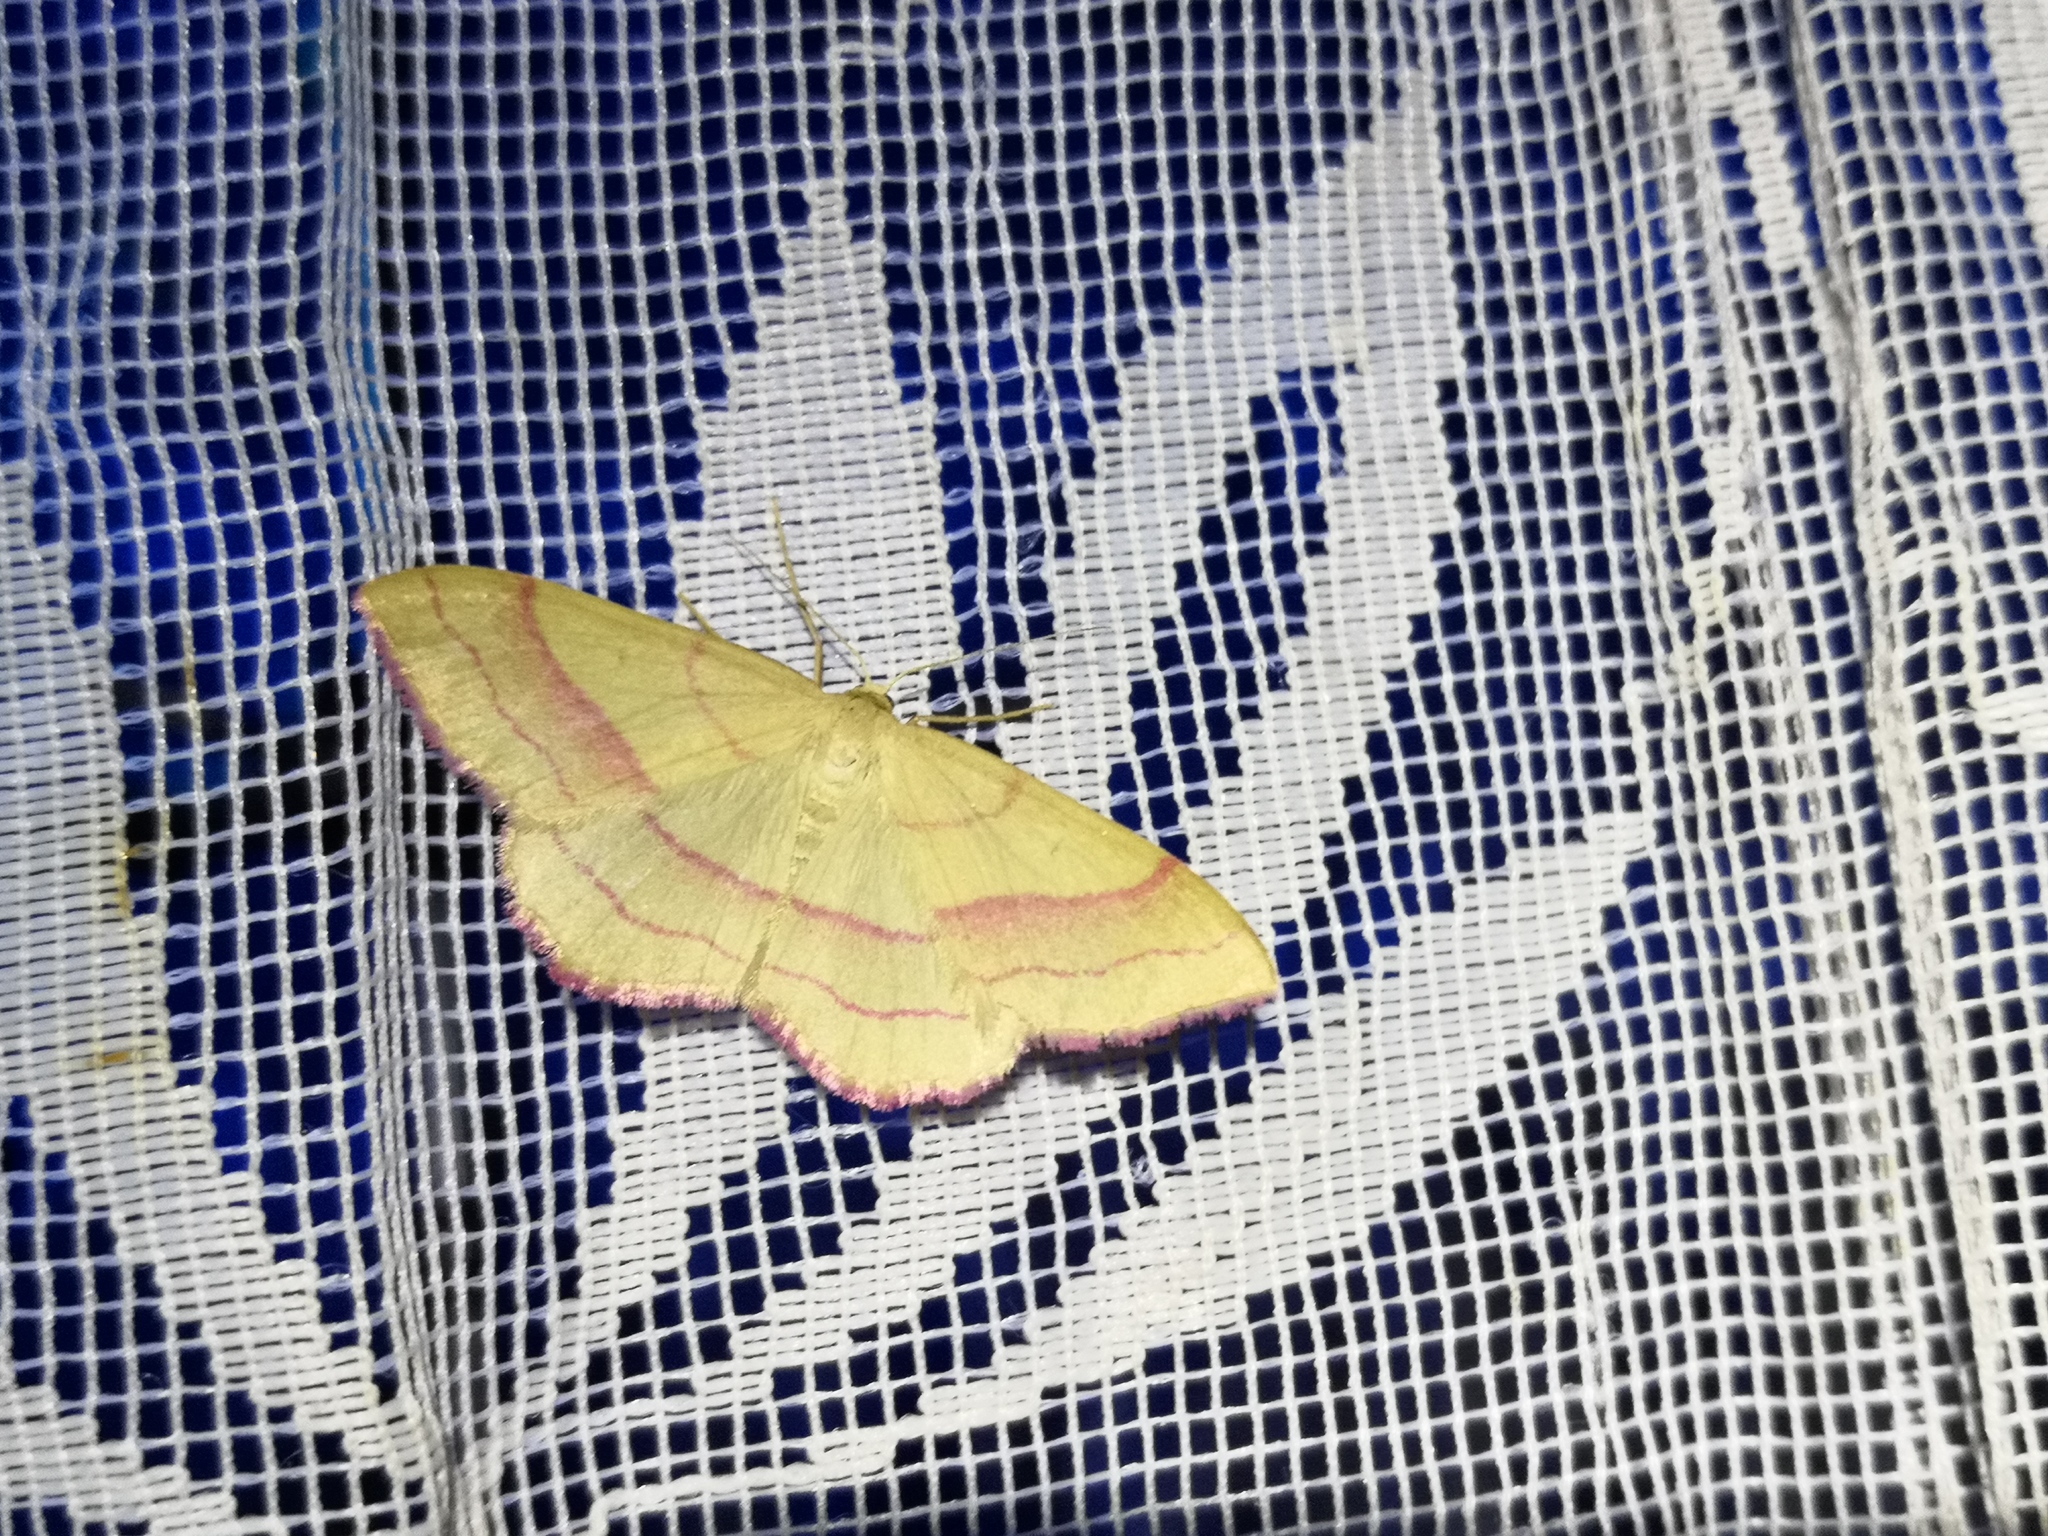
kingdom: Animalia
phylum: Arthropoda
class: Insecta
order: Lepidoptera
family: Geometridae
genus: Rhodostrophia
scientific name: Rhodostrophia vibicaria
